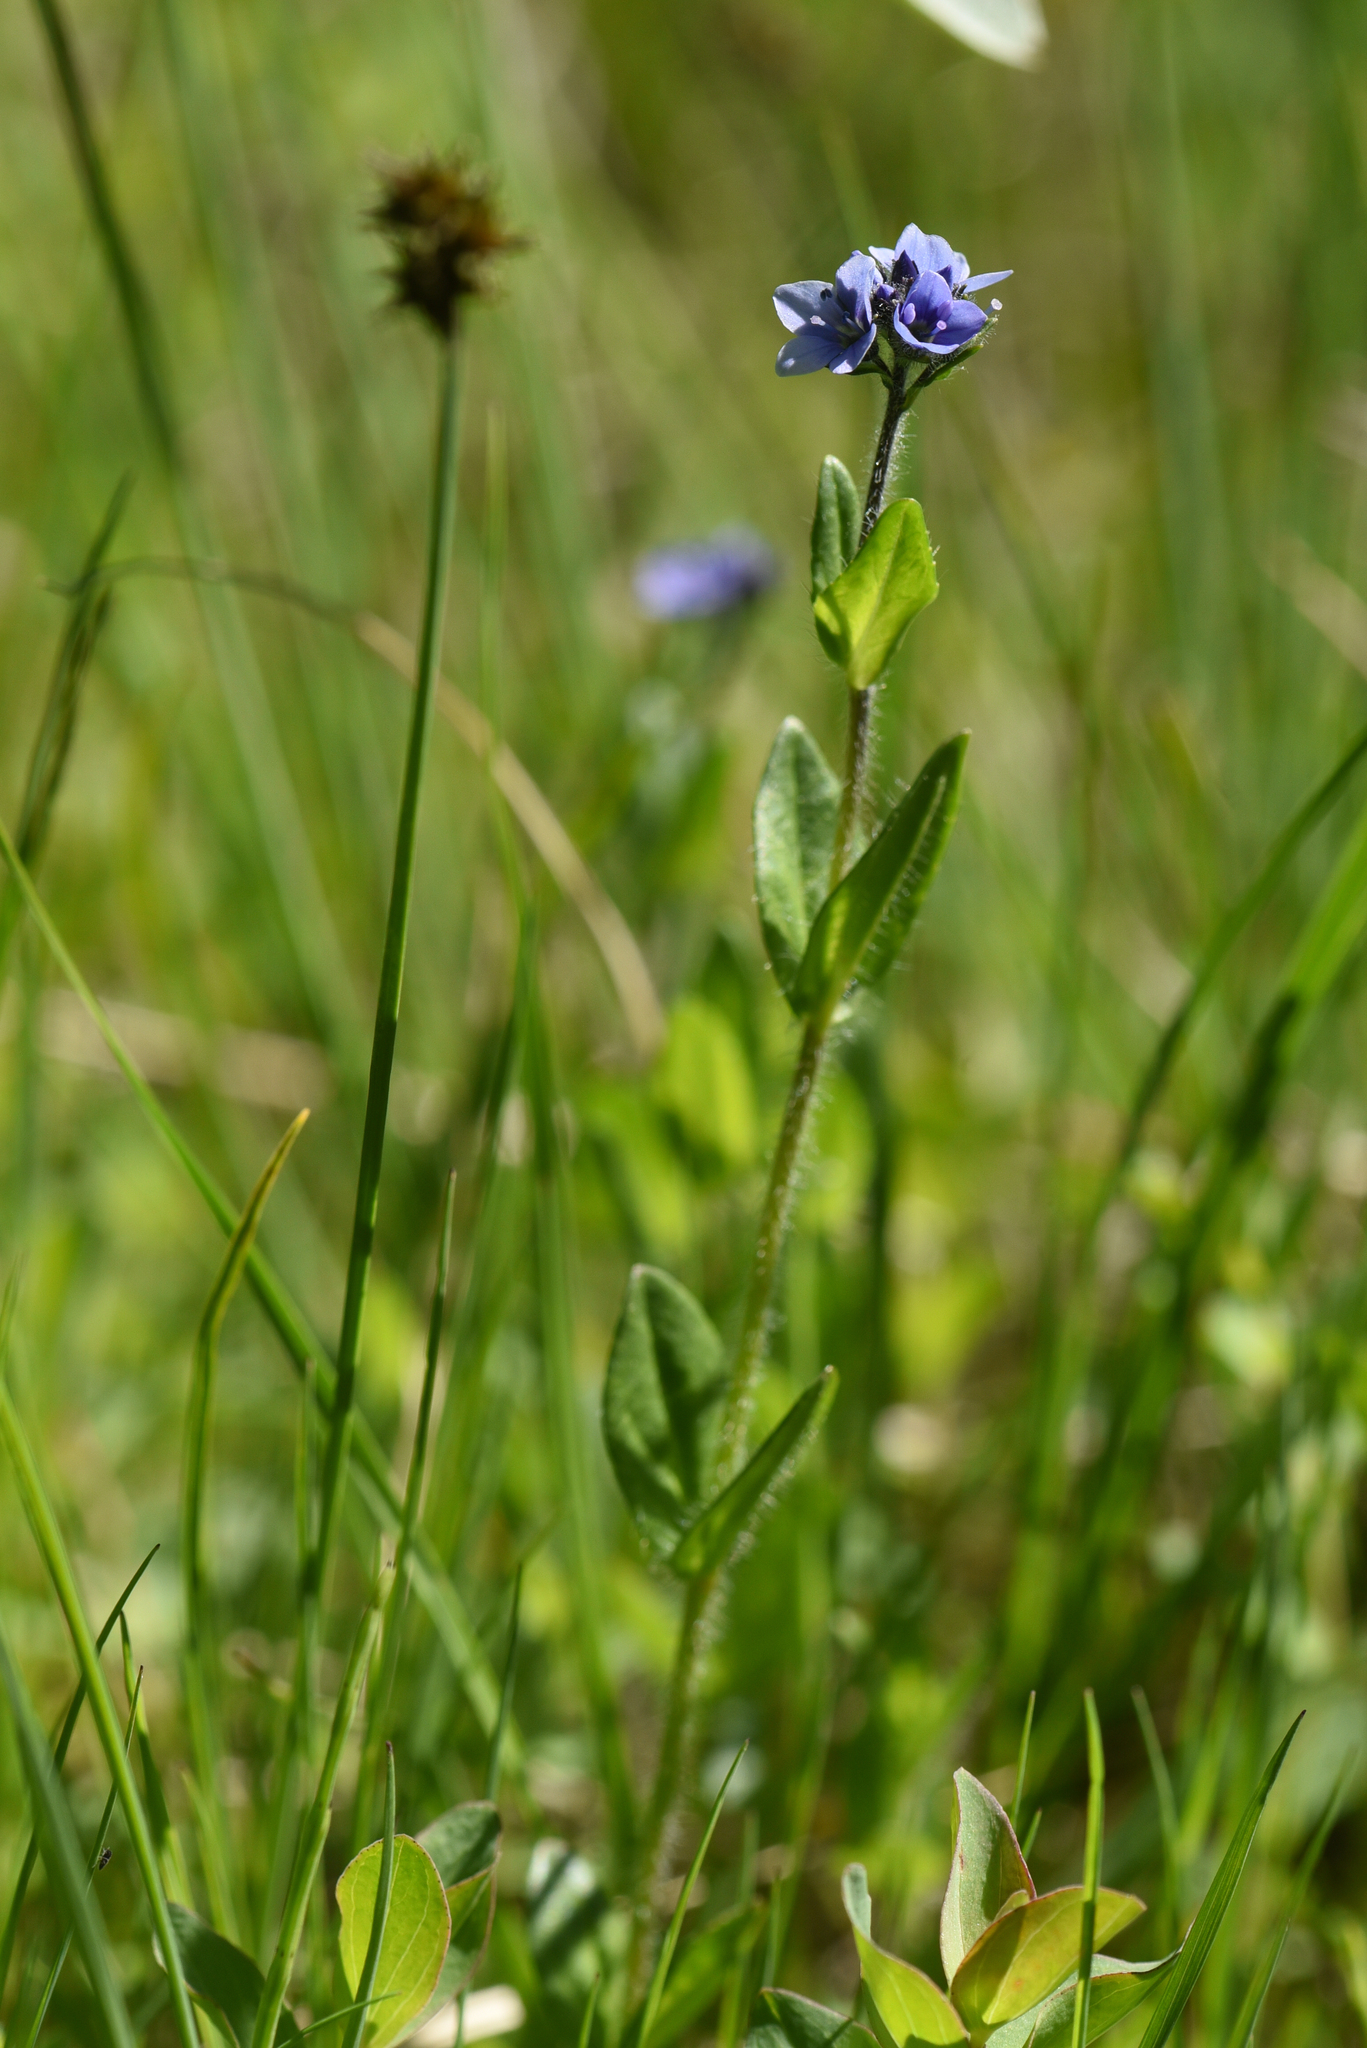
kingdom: Plantae
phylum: Tracheophyta
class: Magnoliopsida
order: Lamiales
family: Plantaginaceae
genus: Veronica
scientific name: Veronica wormskjoldii
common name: American alpine speedwell
